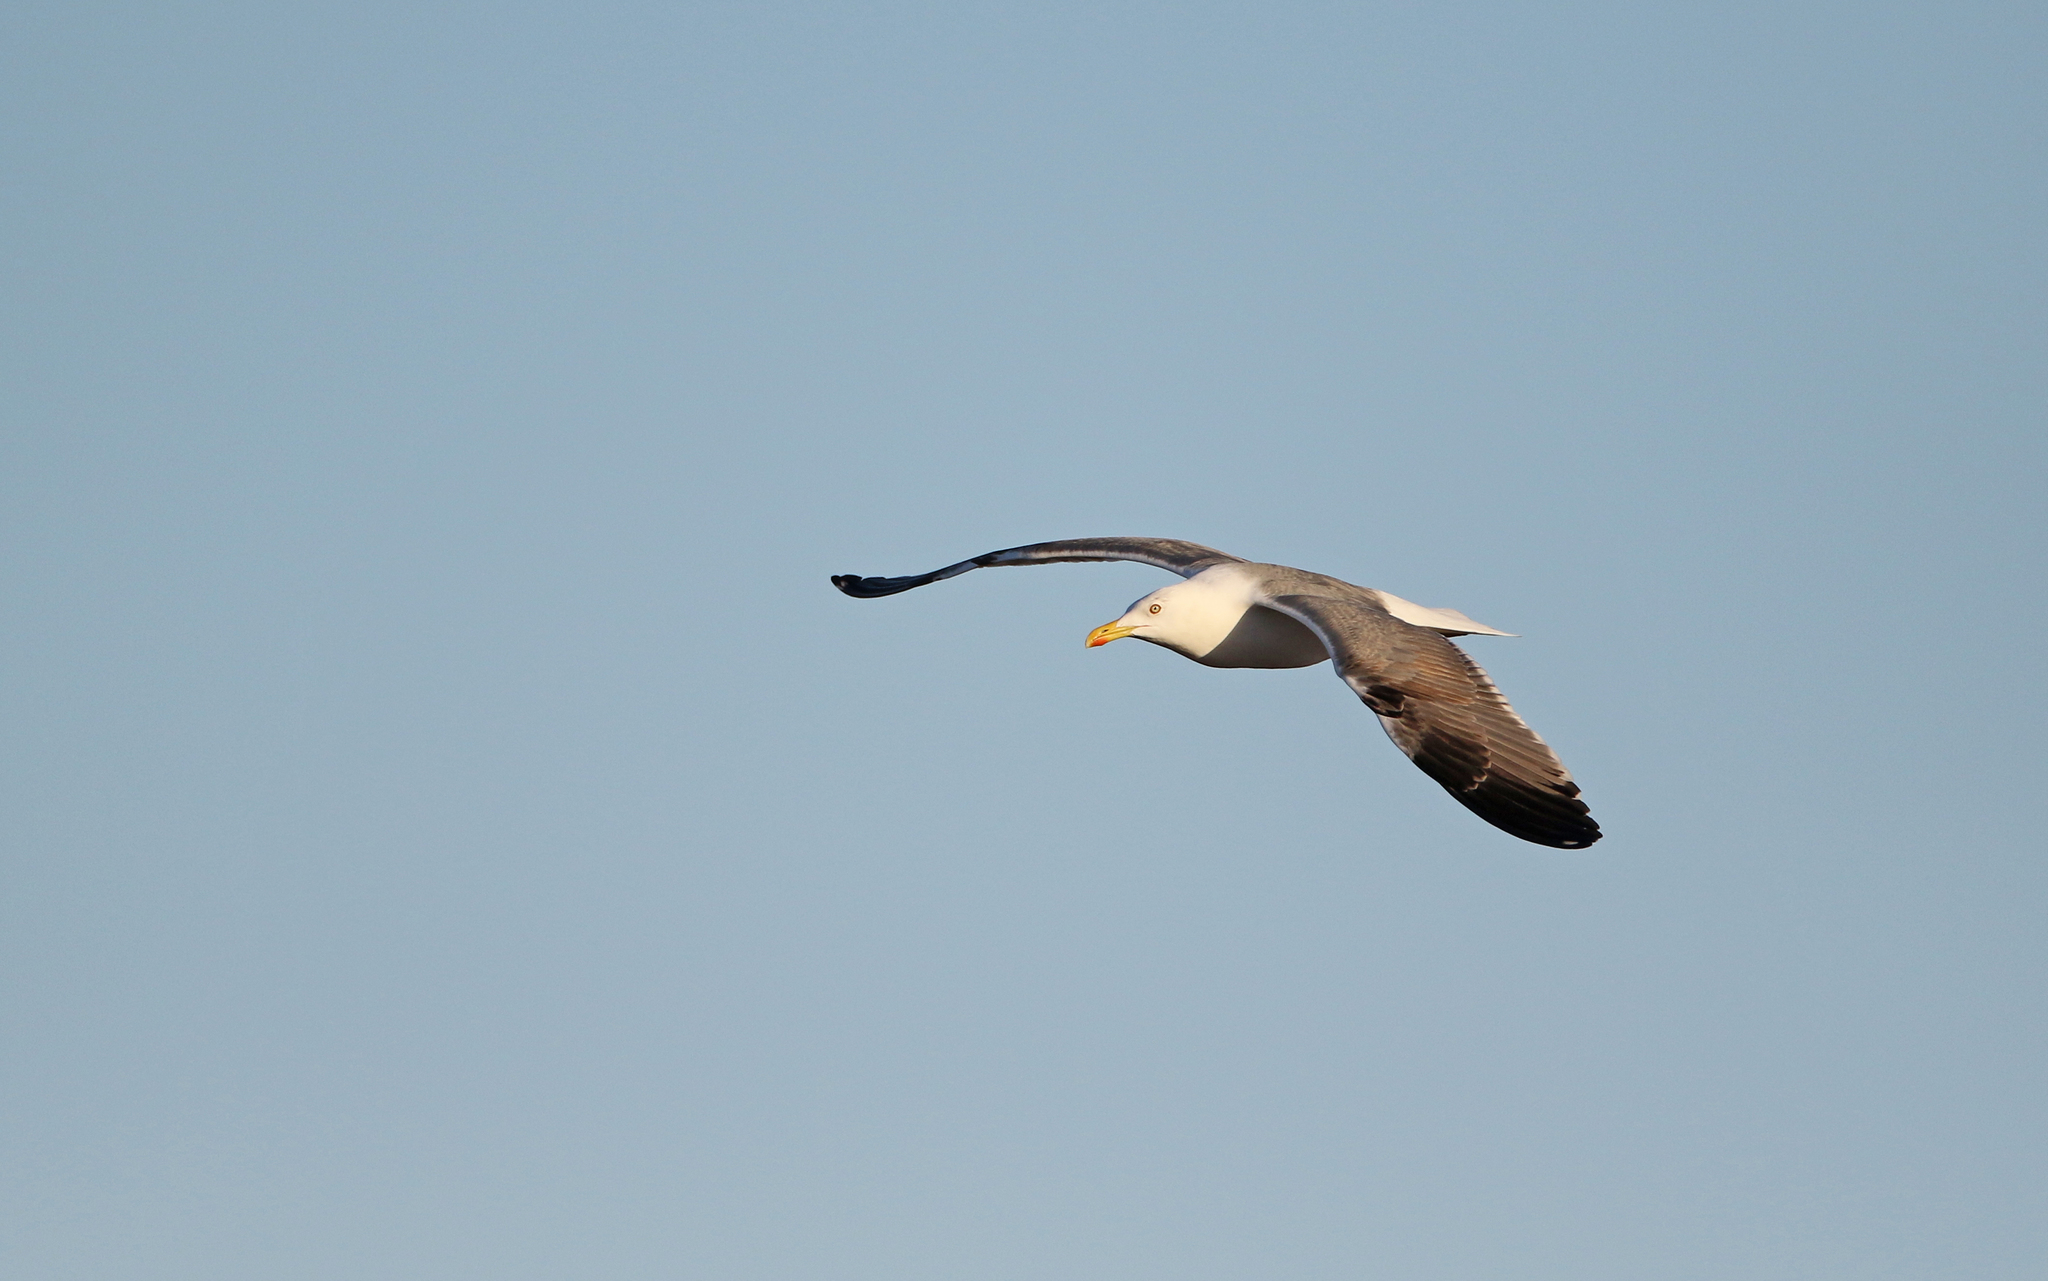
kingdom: Animalia
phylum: Chordata
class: Aves
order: Charadriiformes
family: Laridae
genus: Larus
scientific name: Larus michahellis
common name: Yellow-legged gull
